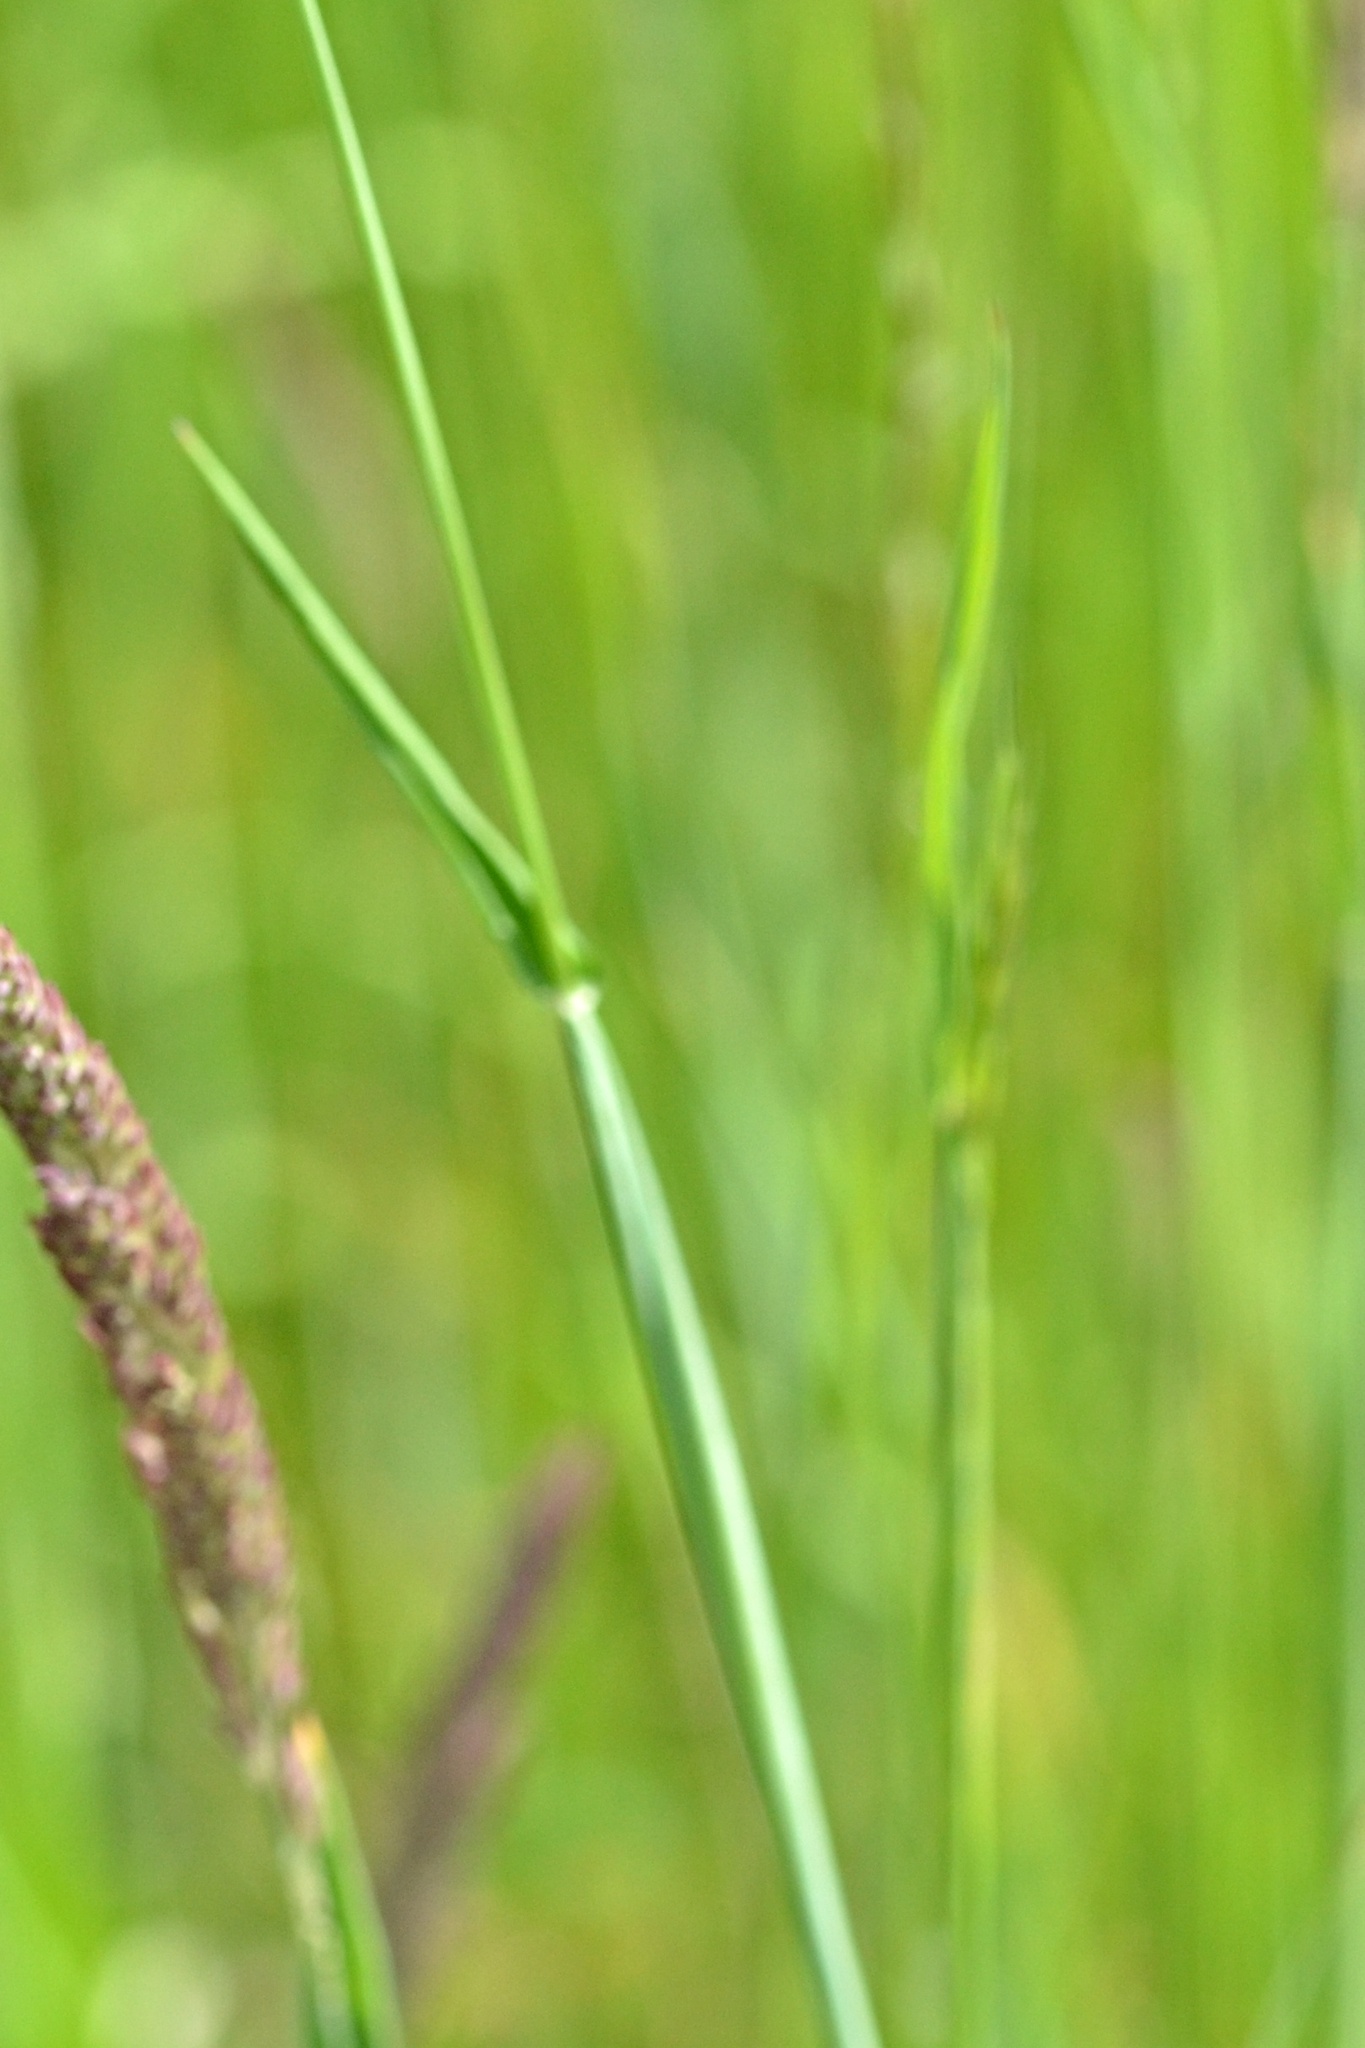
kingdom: Plantae
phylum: Tracheophyta
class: Liliopsida
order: Poales
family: Poaceae
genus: Alopecurus
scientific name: Alopecurus pratensis
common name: Meadow foxtail
